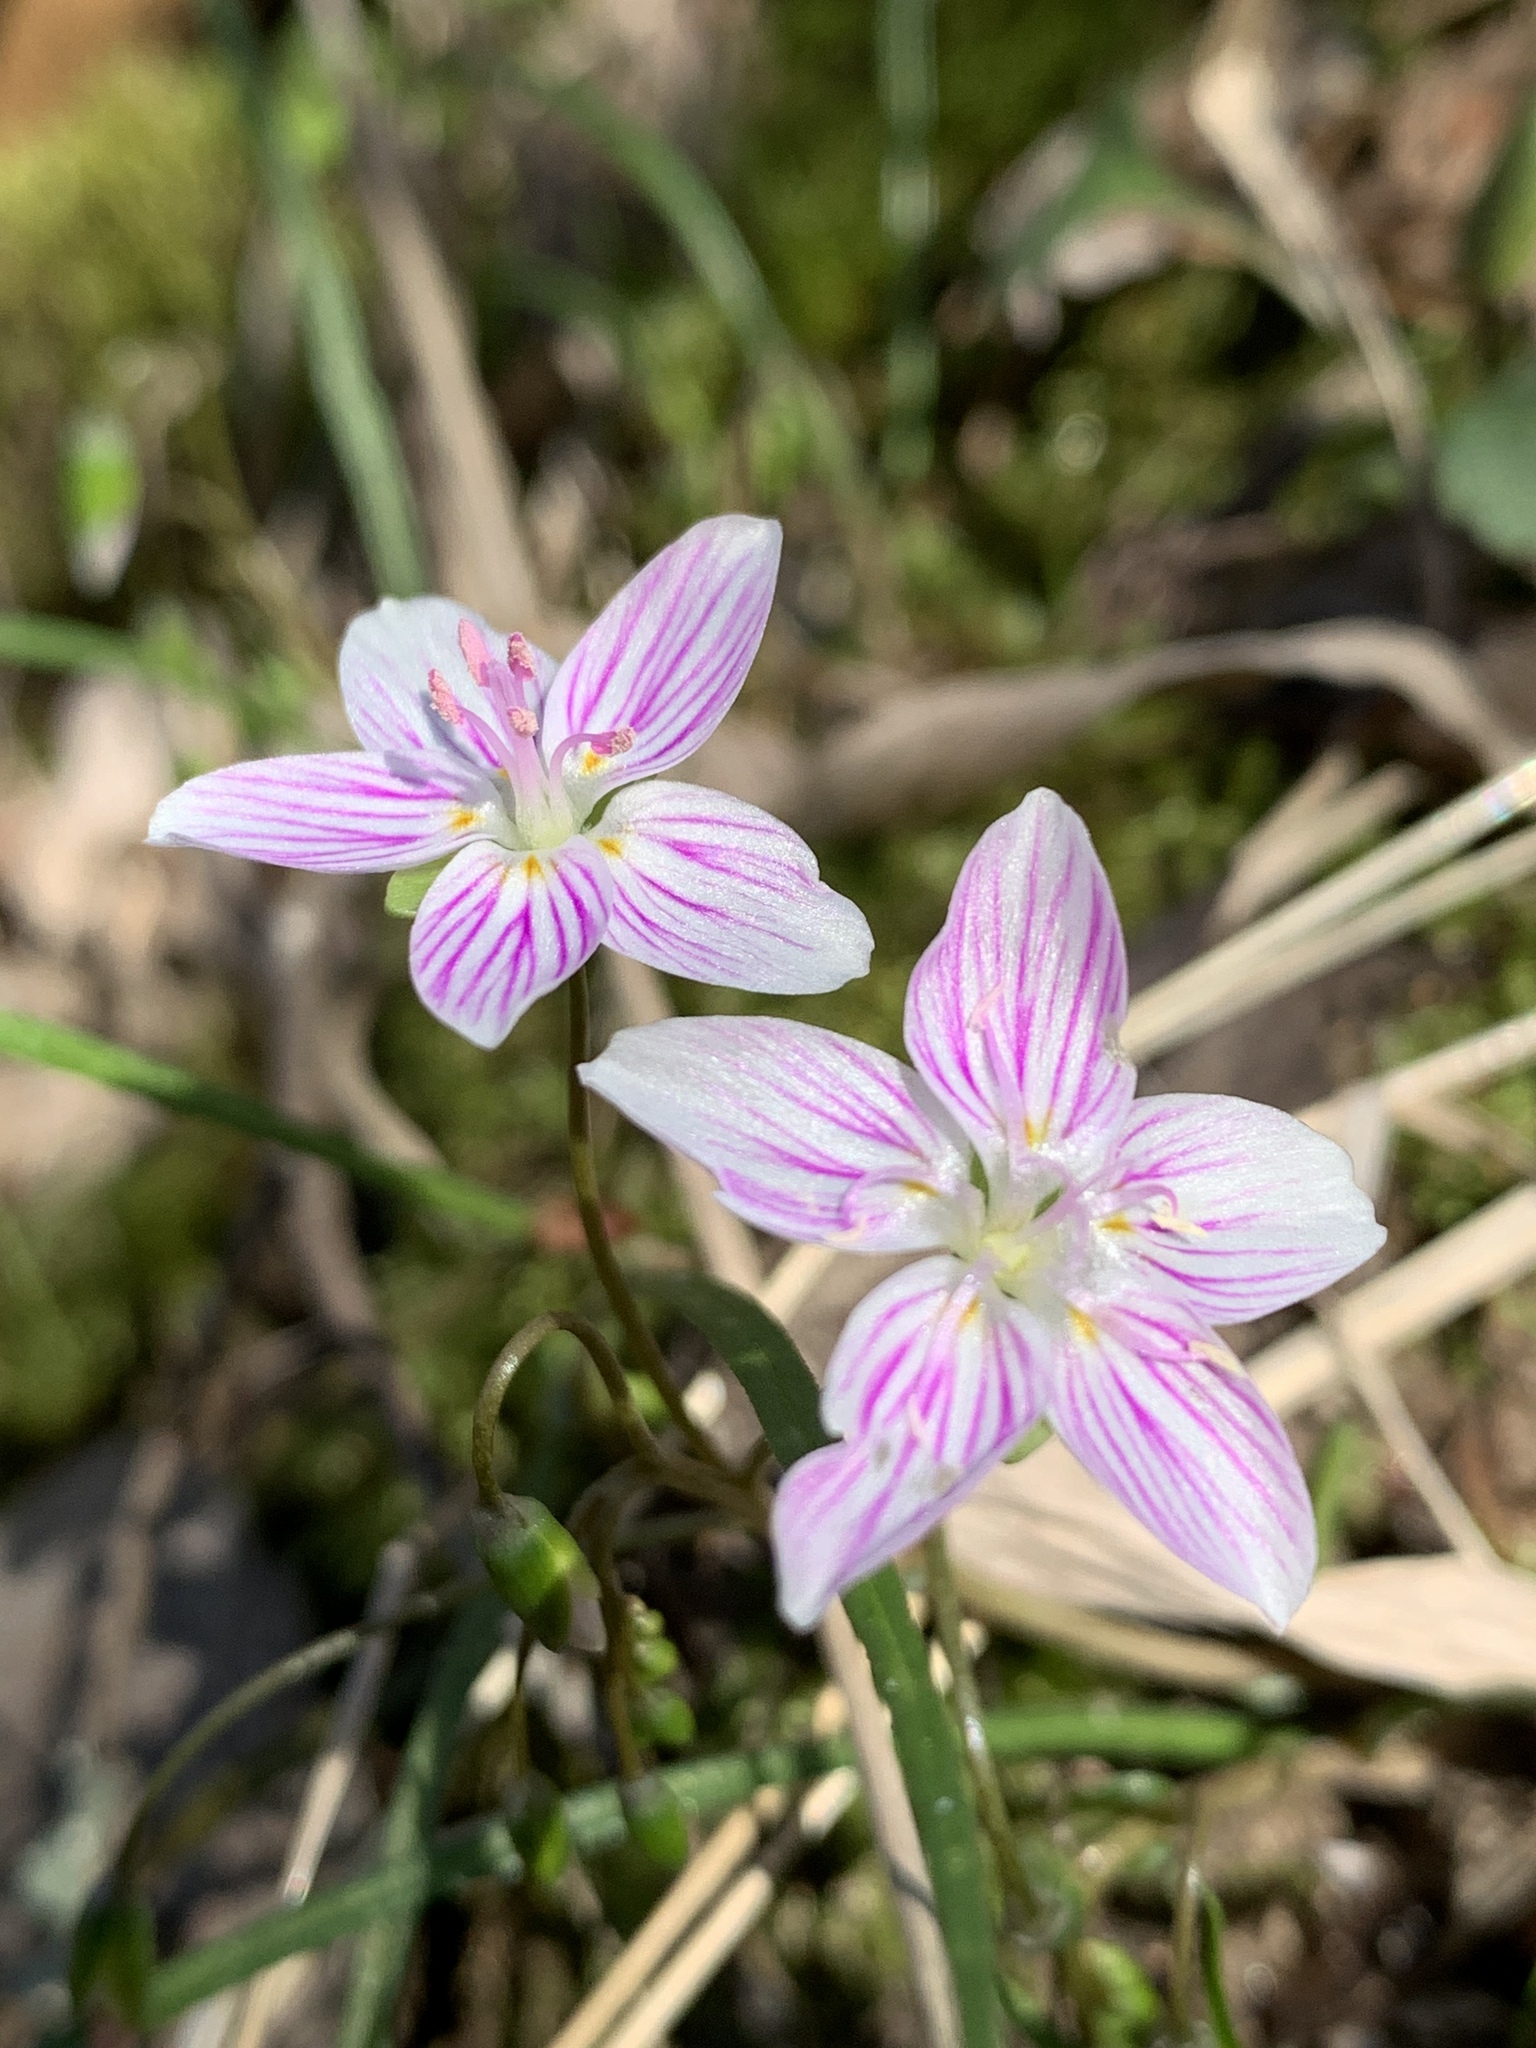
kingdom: Plantae
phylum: Tracheophyta
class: Magnoliopsida
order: Caryophyllales
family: Montiaceae
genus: Claytonia
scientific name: Claytonia virginica
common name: Virginia springbeauty
